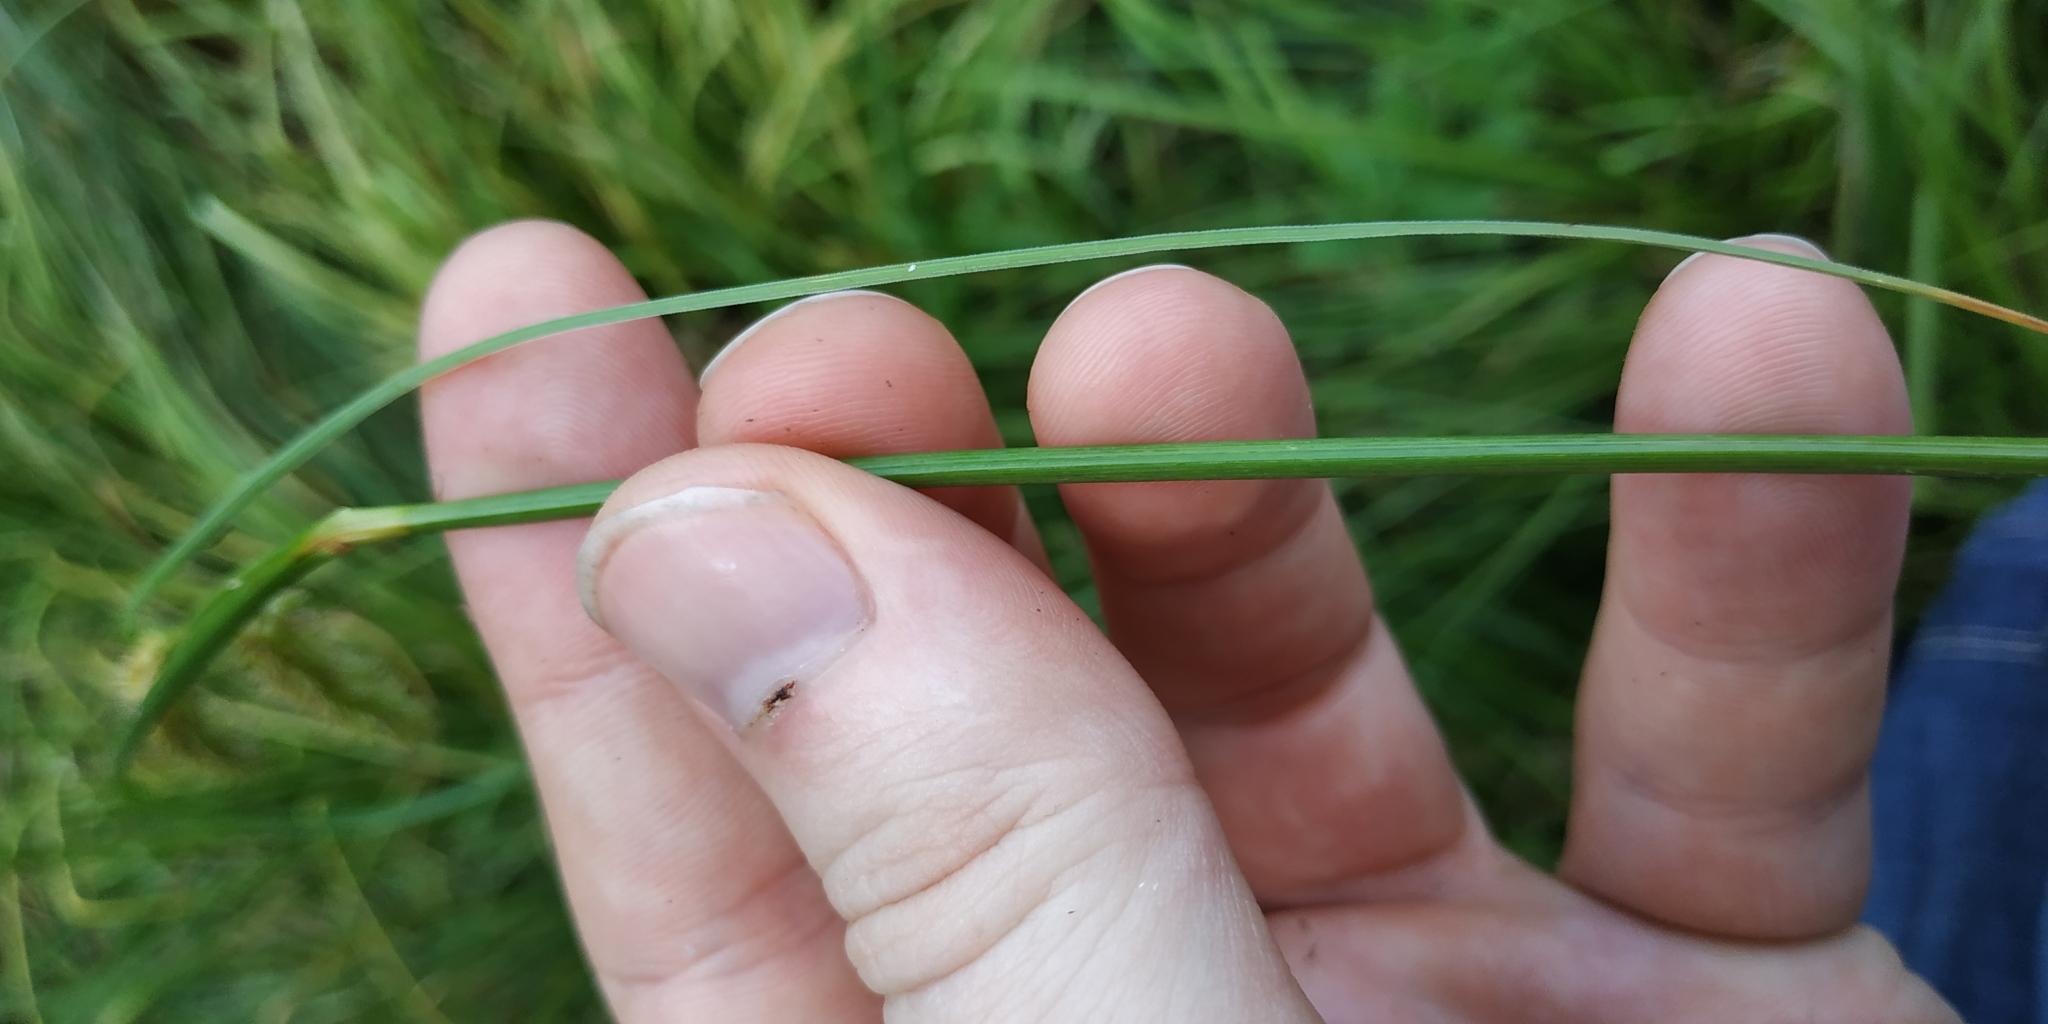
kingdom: Plantae
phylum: Tracheophyta
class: Liliopsida
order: Poales
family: Cyperaceae
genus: Carex
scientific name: Carex rostrata
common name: Bottle sedge
